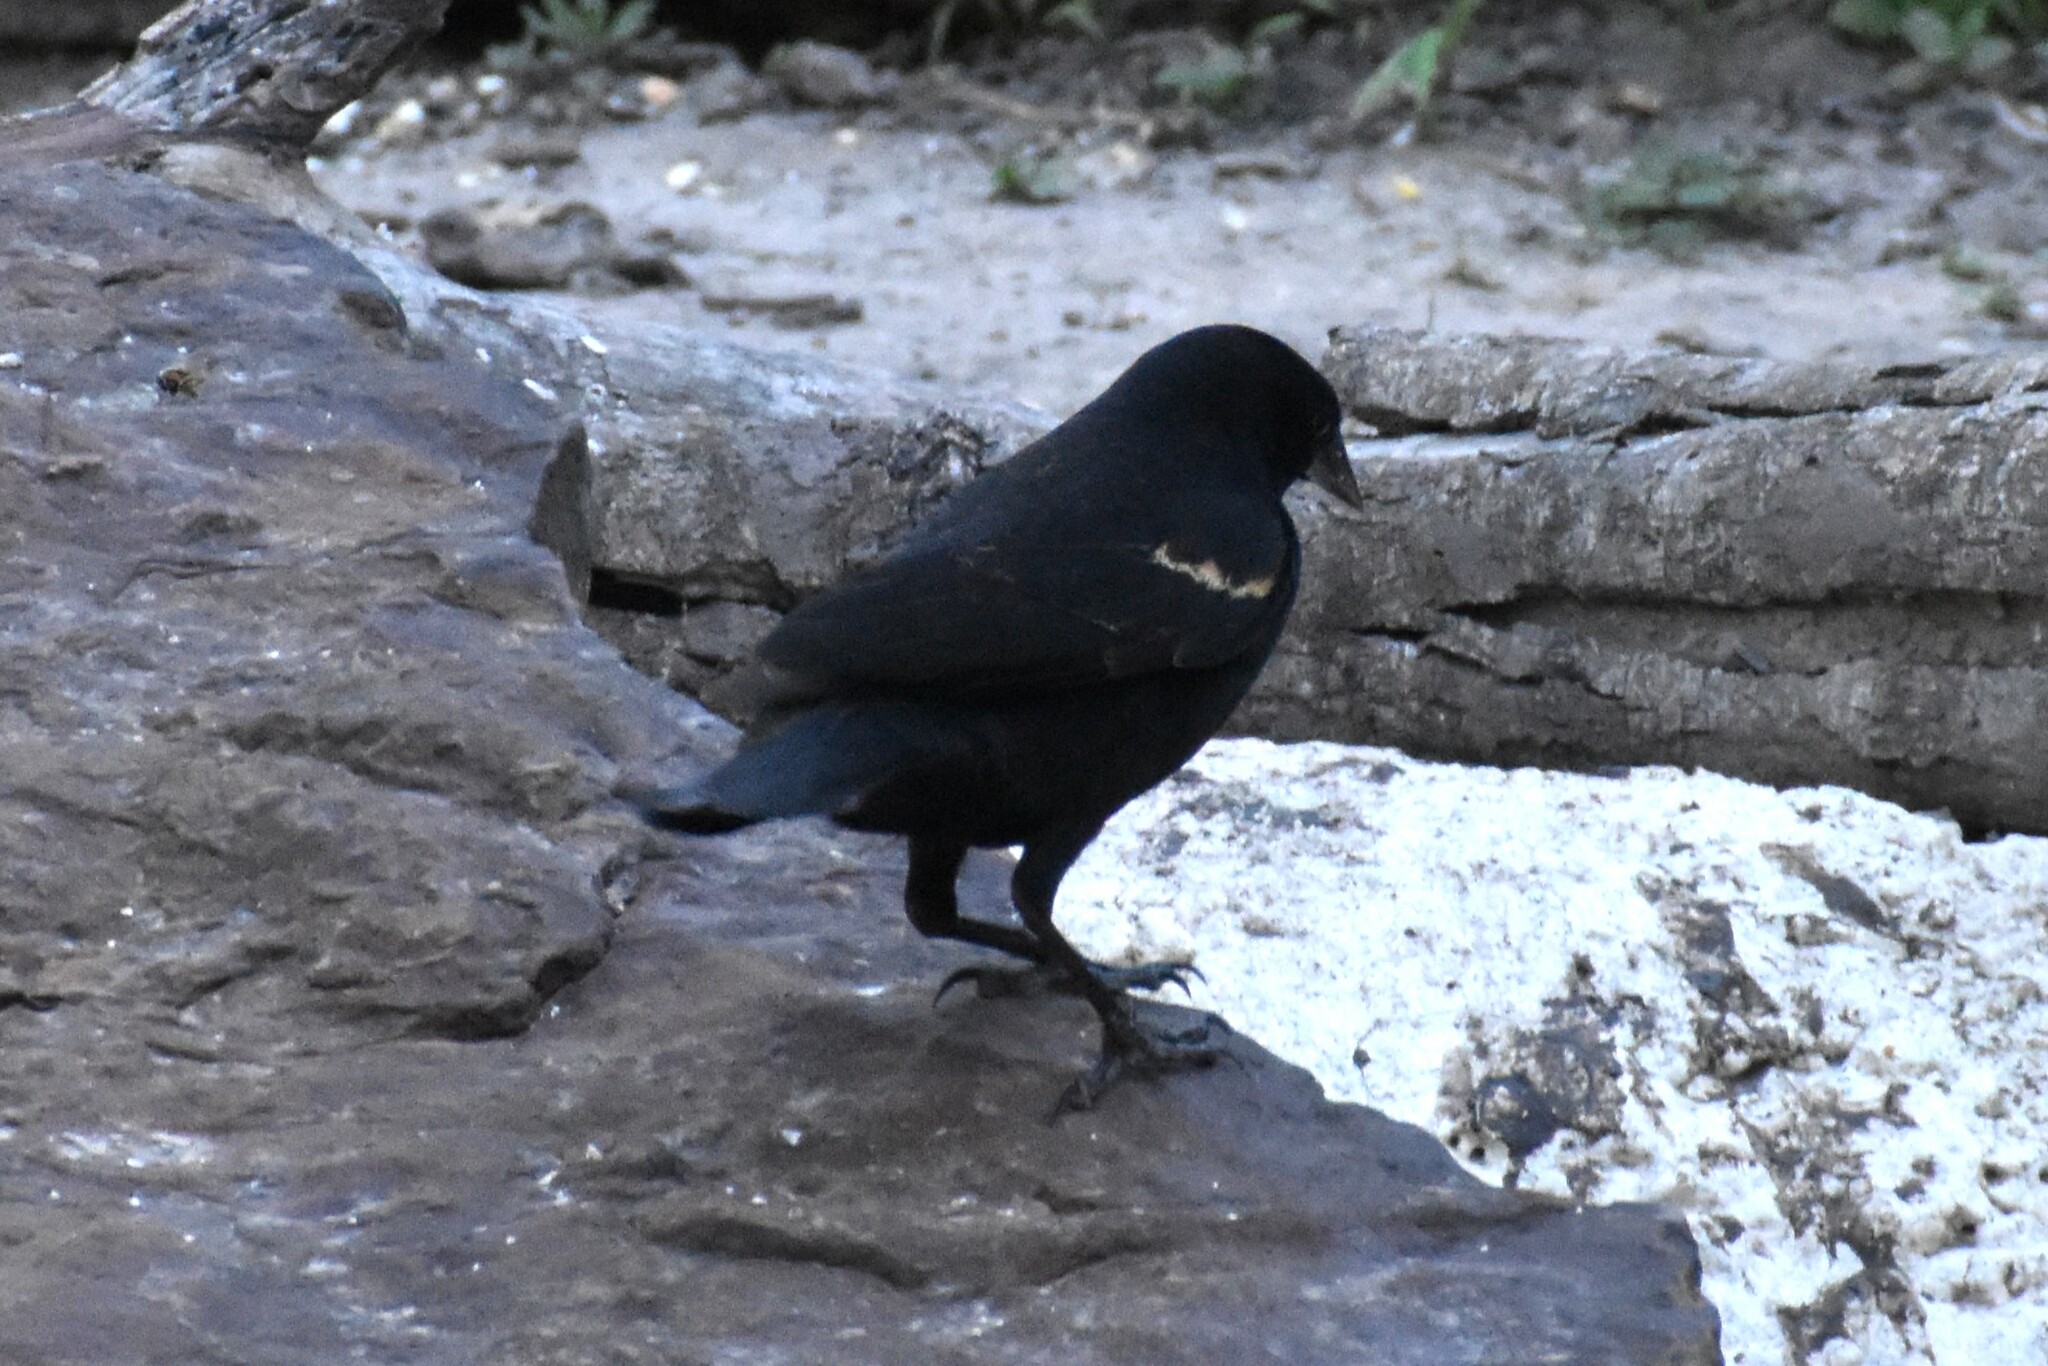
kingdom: Animalia
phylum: Chordata
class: Aves
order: Passeriformes
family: Icteridae
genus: Agelaius
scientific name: Agelaius phoeniceus
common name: Red-winged blackbird
